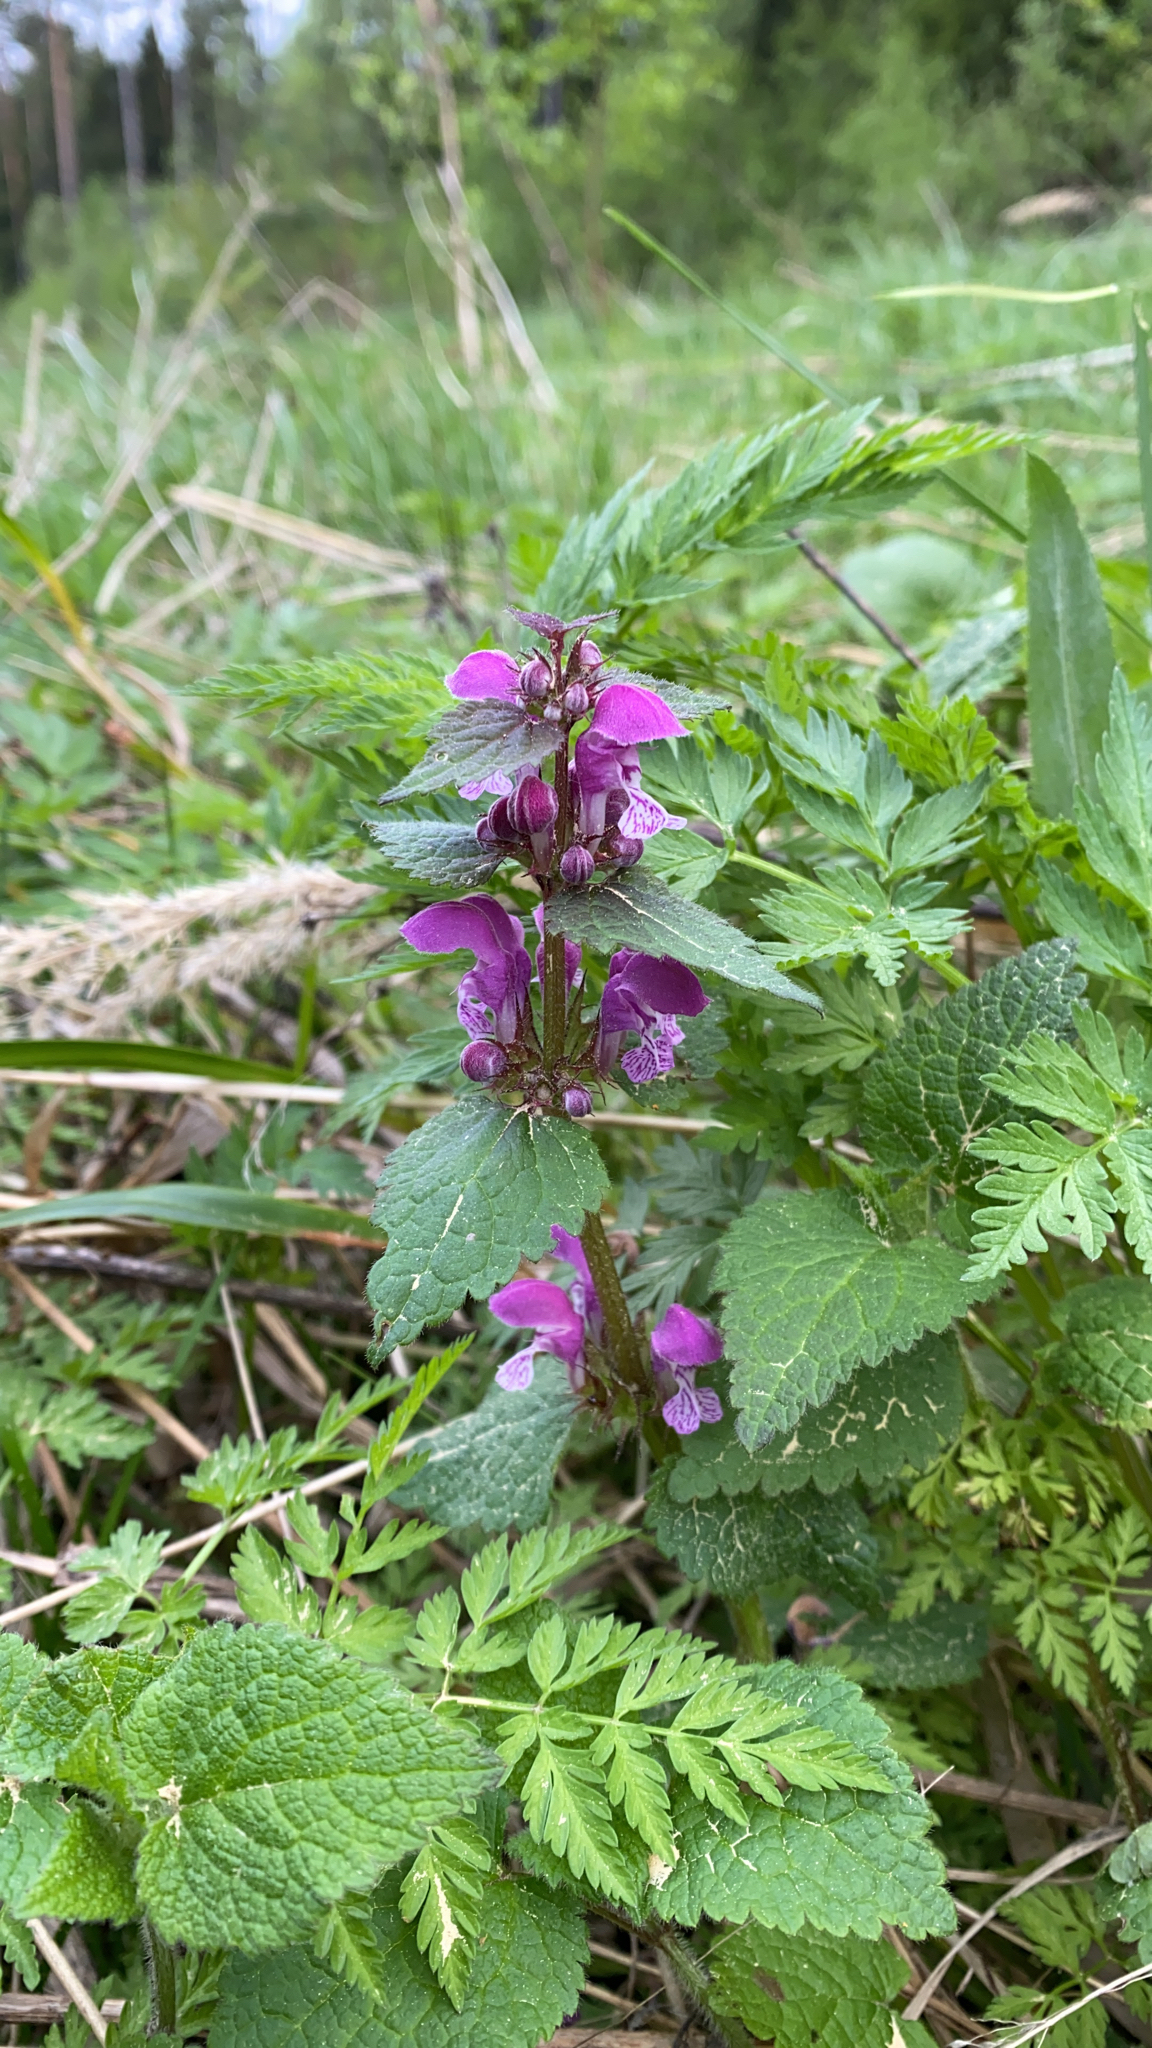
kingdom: Plantae
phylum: Tracheophyta
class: Magnoliopsida
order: Lamiales
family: Lamiaceae
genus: Lamium
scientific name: Lamium maculatum
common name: Spotted dead-nettle
